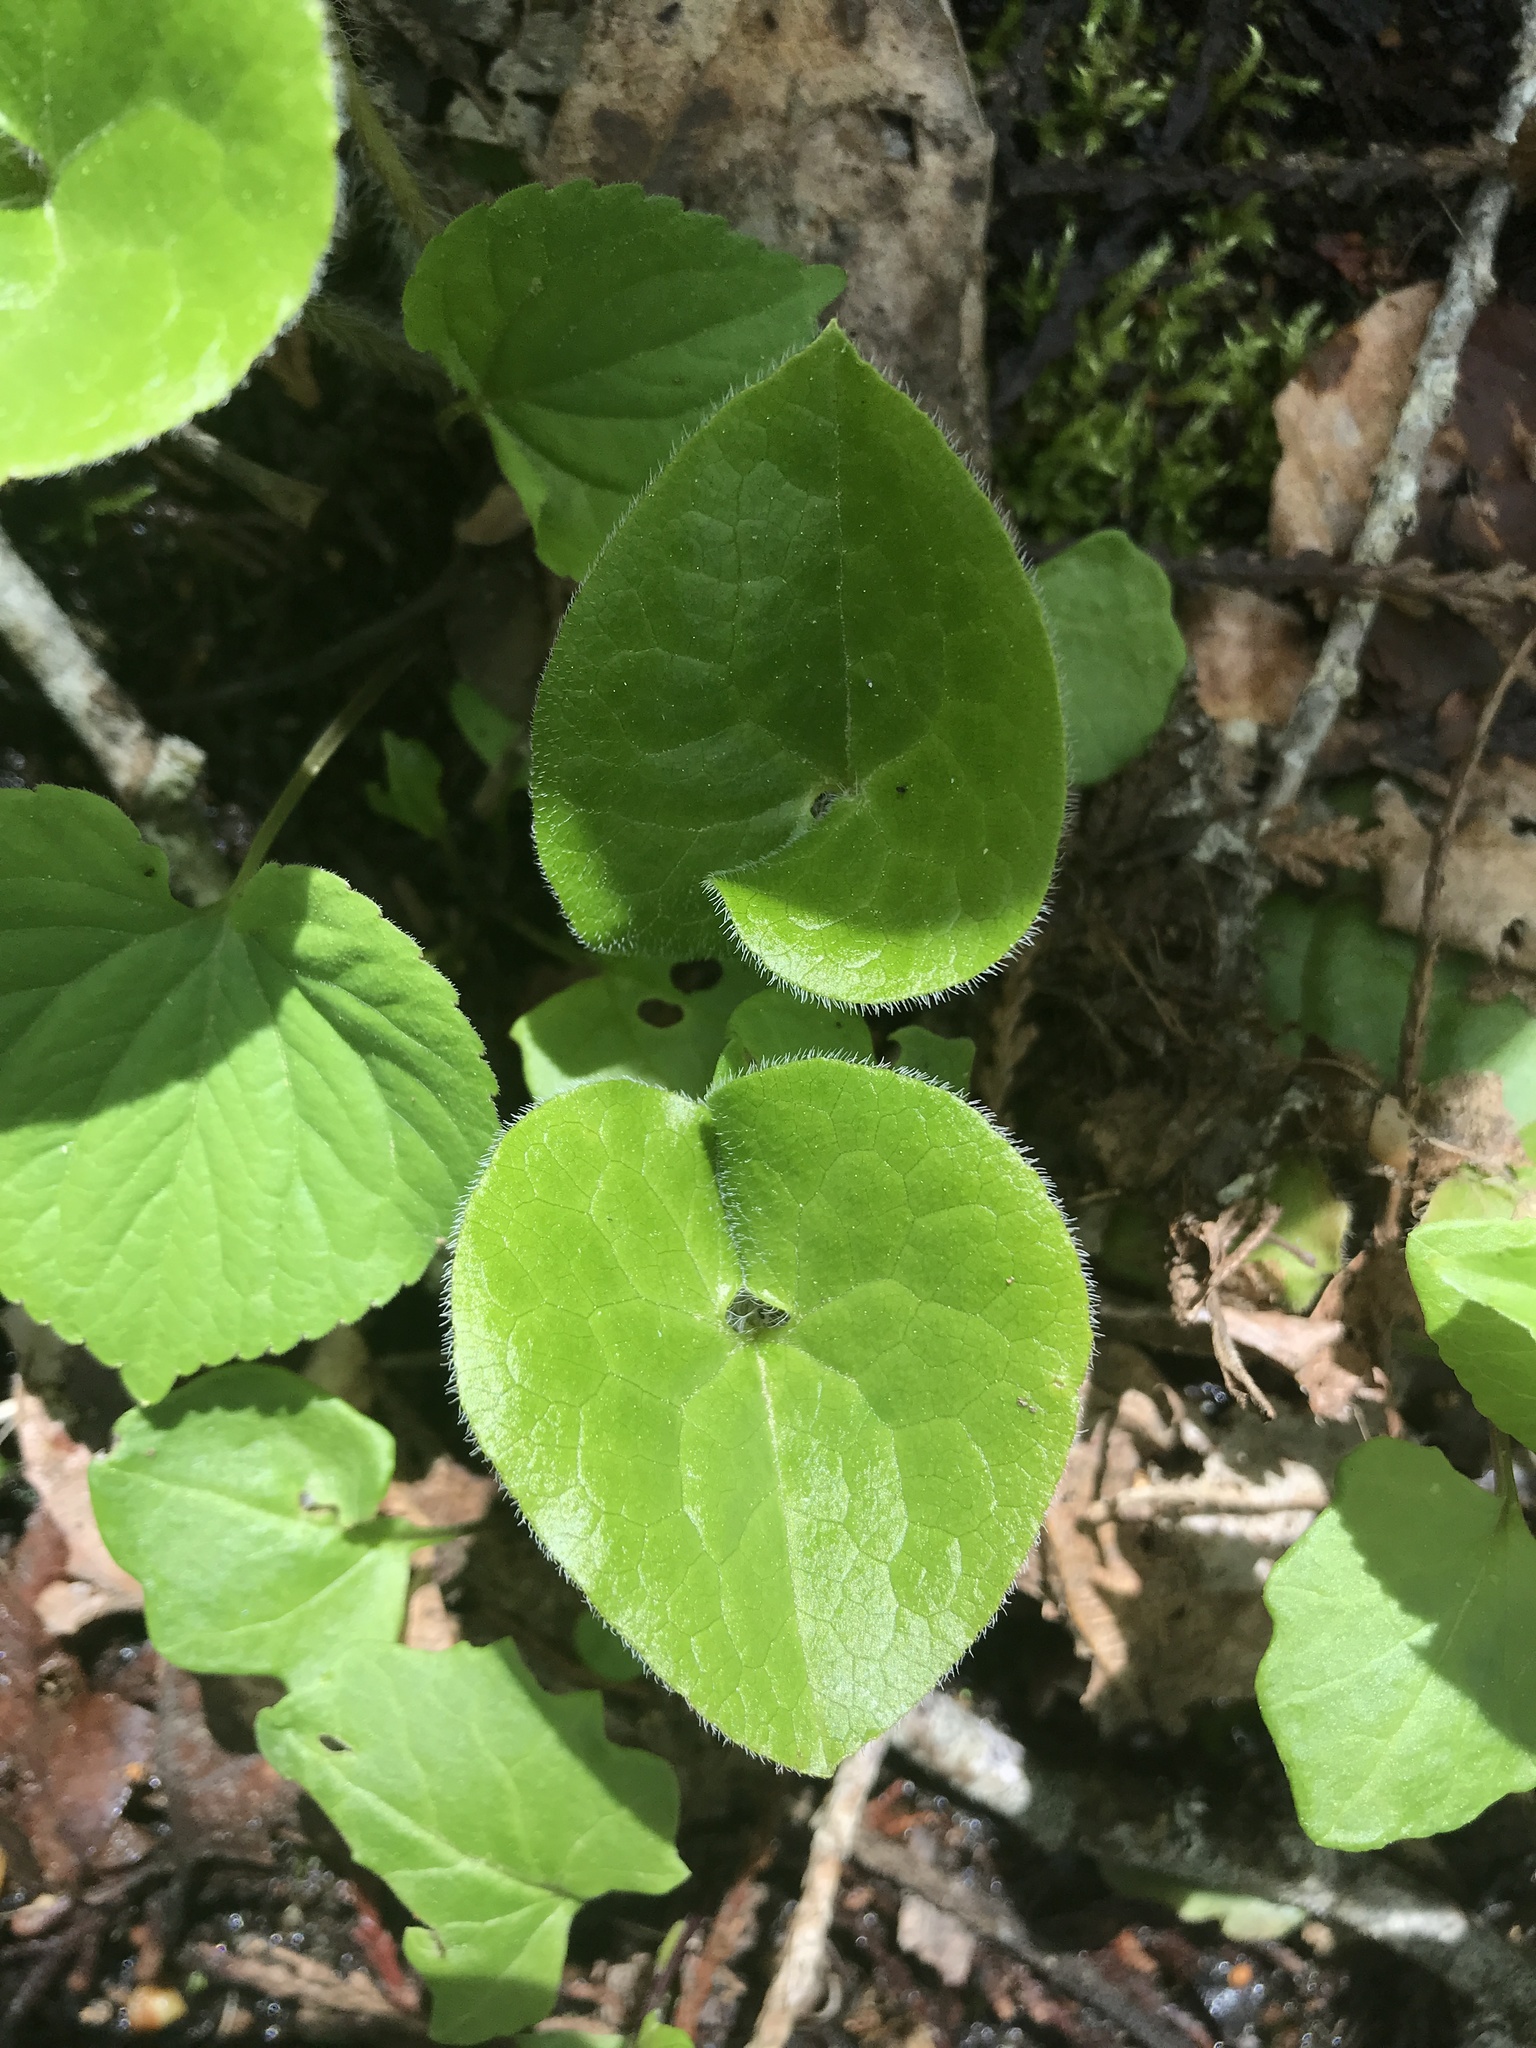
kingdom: Plantae
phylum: Tracheophyta
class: Magnoliopsida
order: Piperales
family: Aristolochiaceae
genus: Asarum
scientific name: Asarum caudatum
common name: Wild ginger
